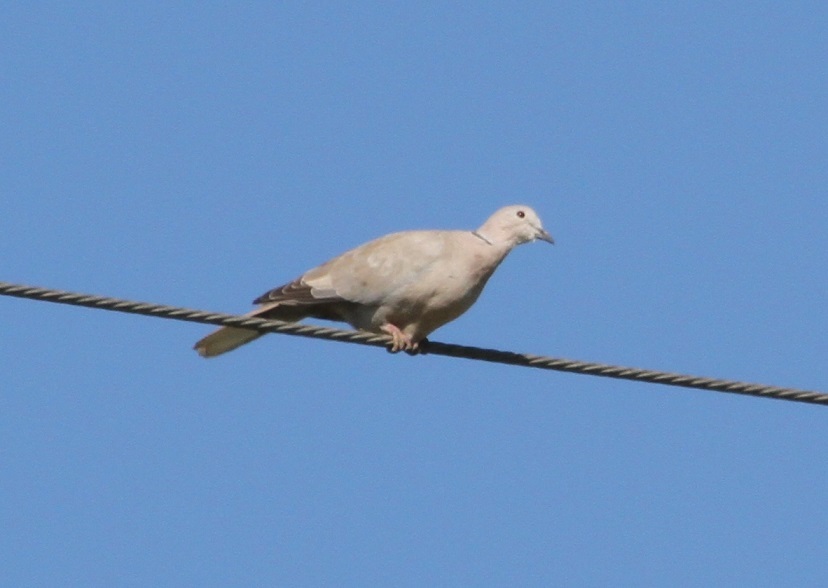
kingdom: Animalia
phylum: Chordata
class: Aves
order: Columbiformes
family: Columbidae
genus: Streptopelia
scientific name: Streptopelia decaocto
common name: Eurasian collared dove
